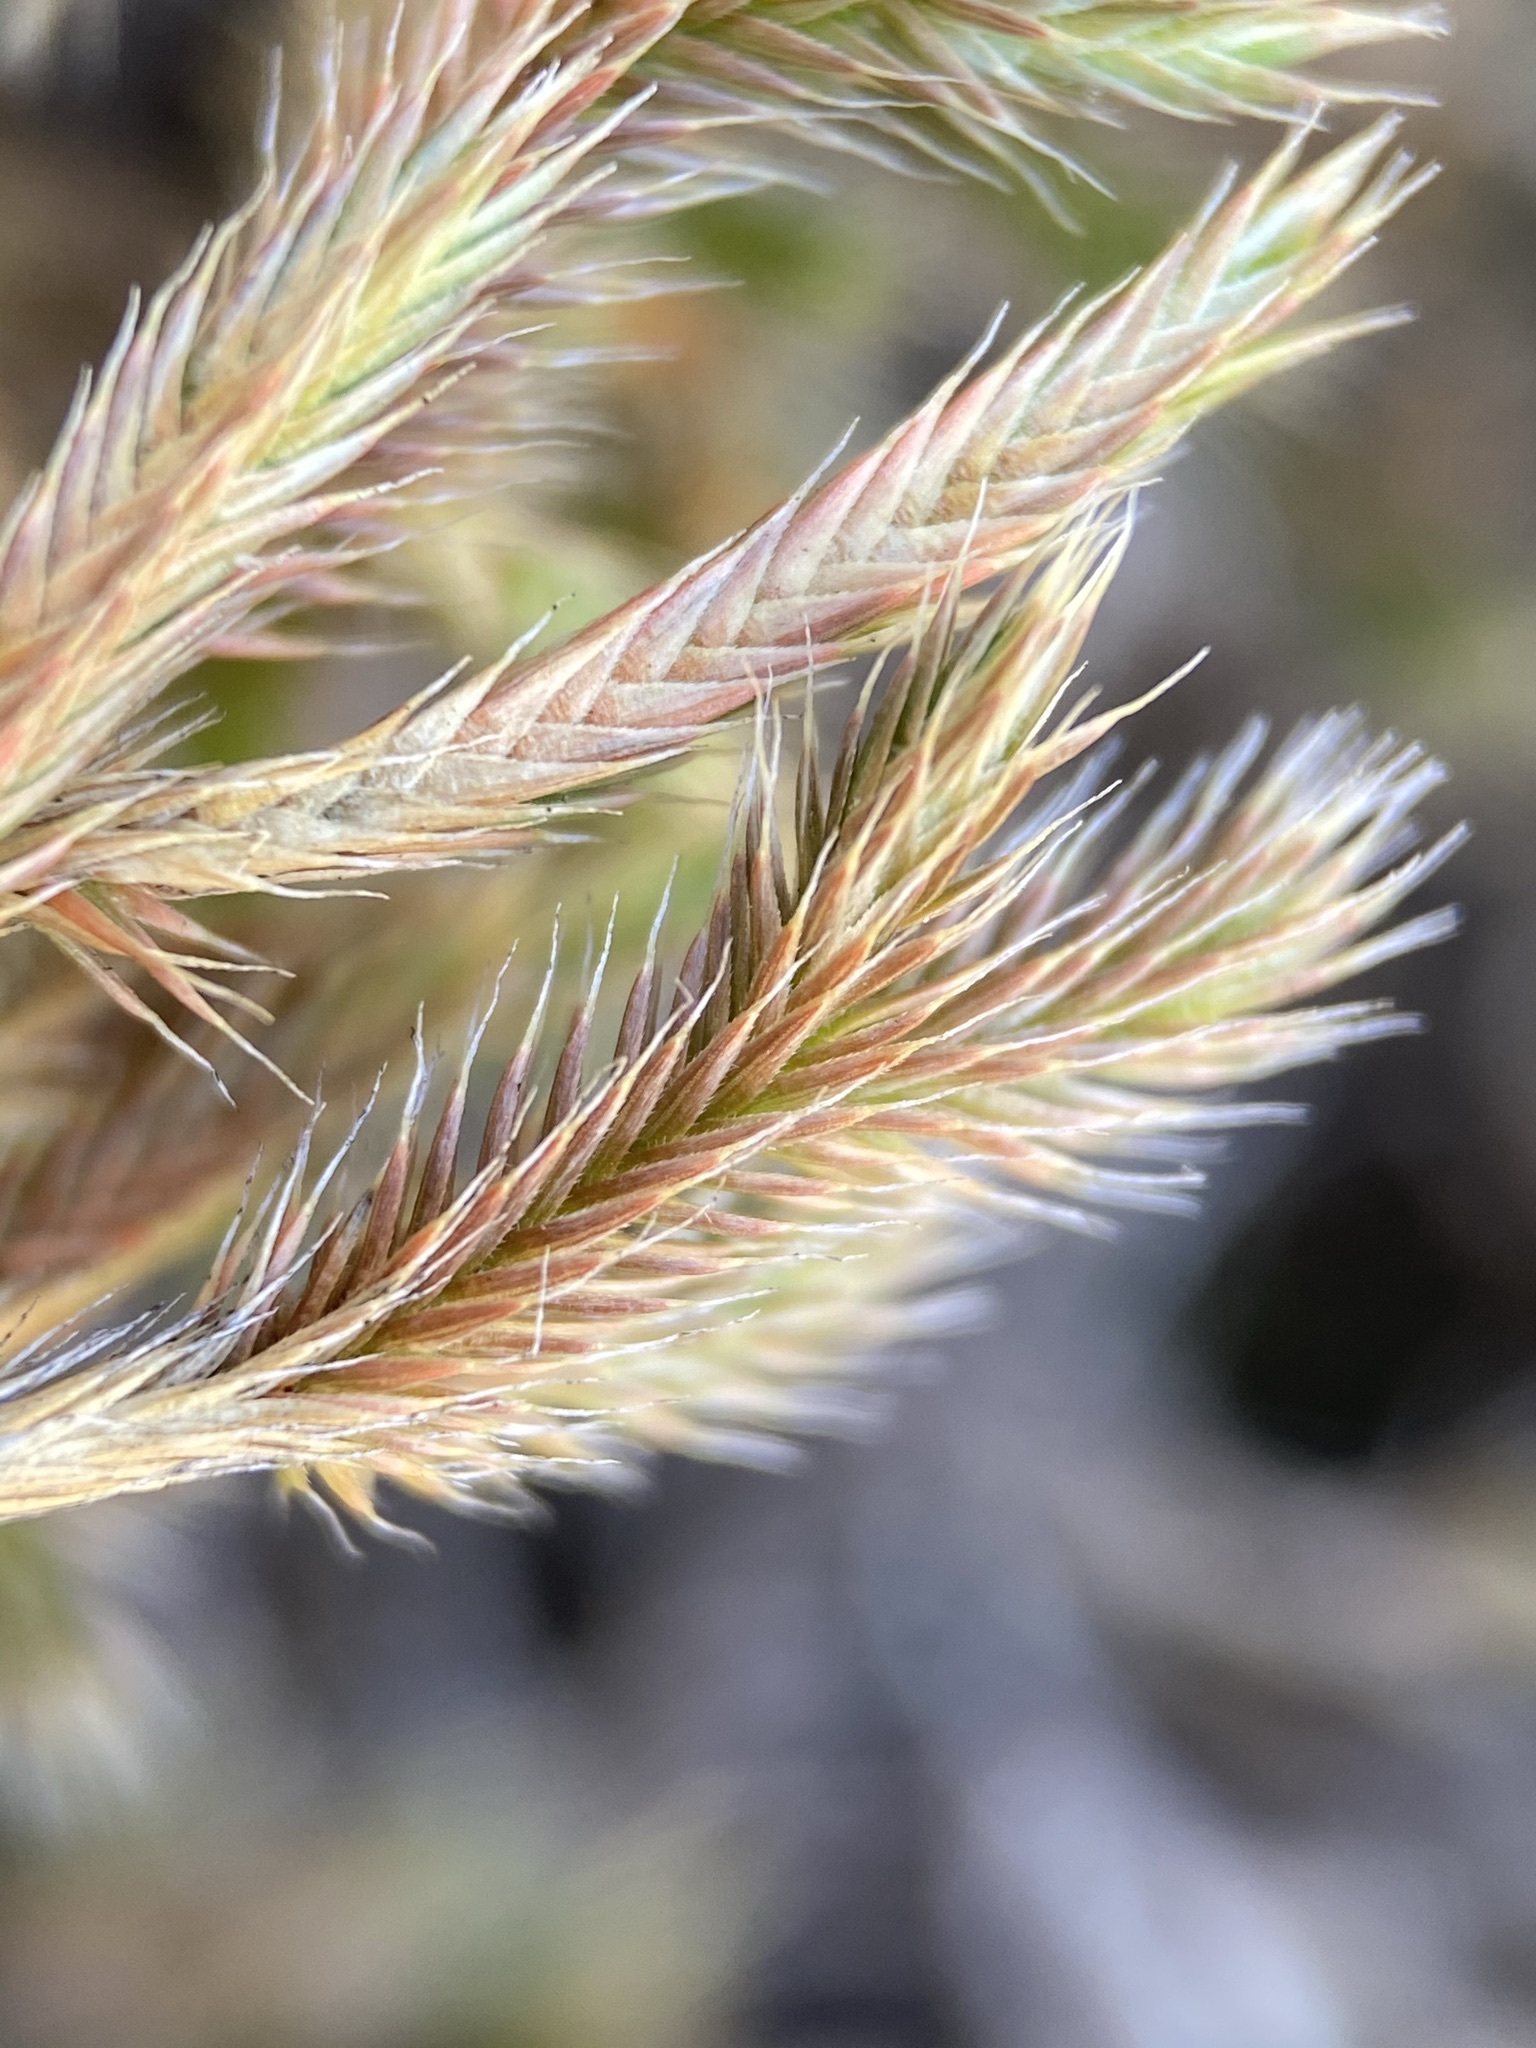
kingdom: Plantae
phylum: Tracheophyta
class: Lycopodiopsida
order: Selaginellales
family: Selaginellaceae
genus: Selaginella
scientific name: Selaginella rupincola
